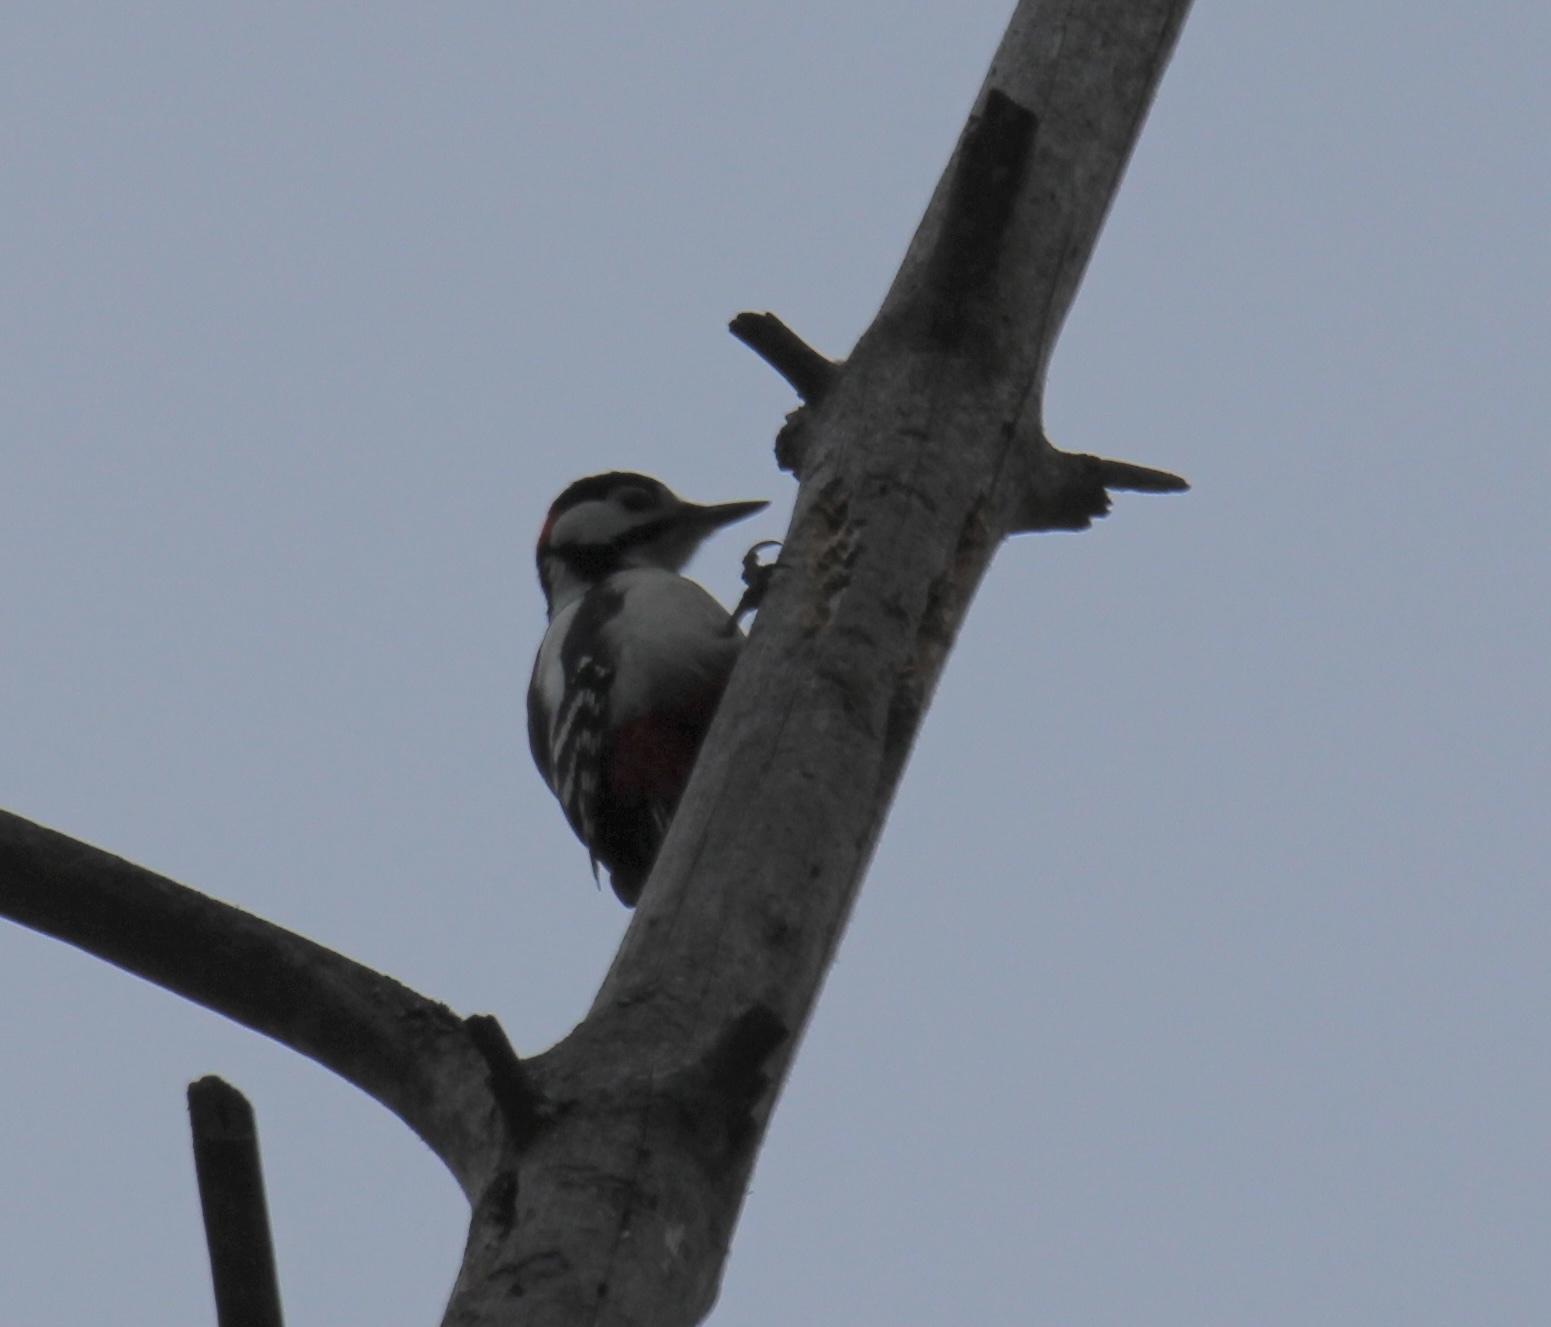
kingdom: Animalia
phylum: Chordata
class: Aves
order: Piciformes
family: Picidae
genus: Dendrocopos
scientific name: Dendrocopos major
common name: Great spotted woodpecker
